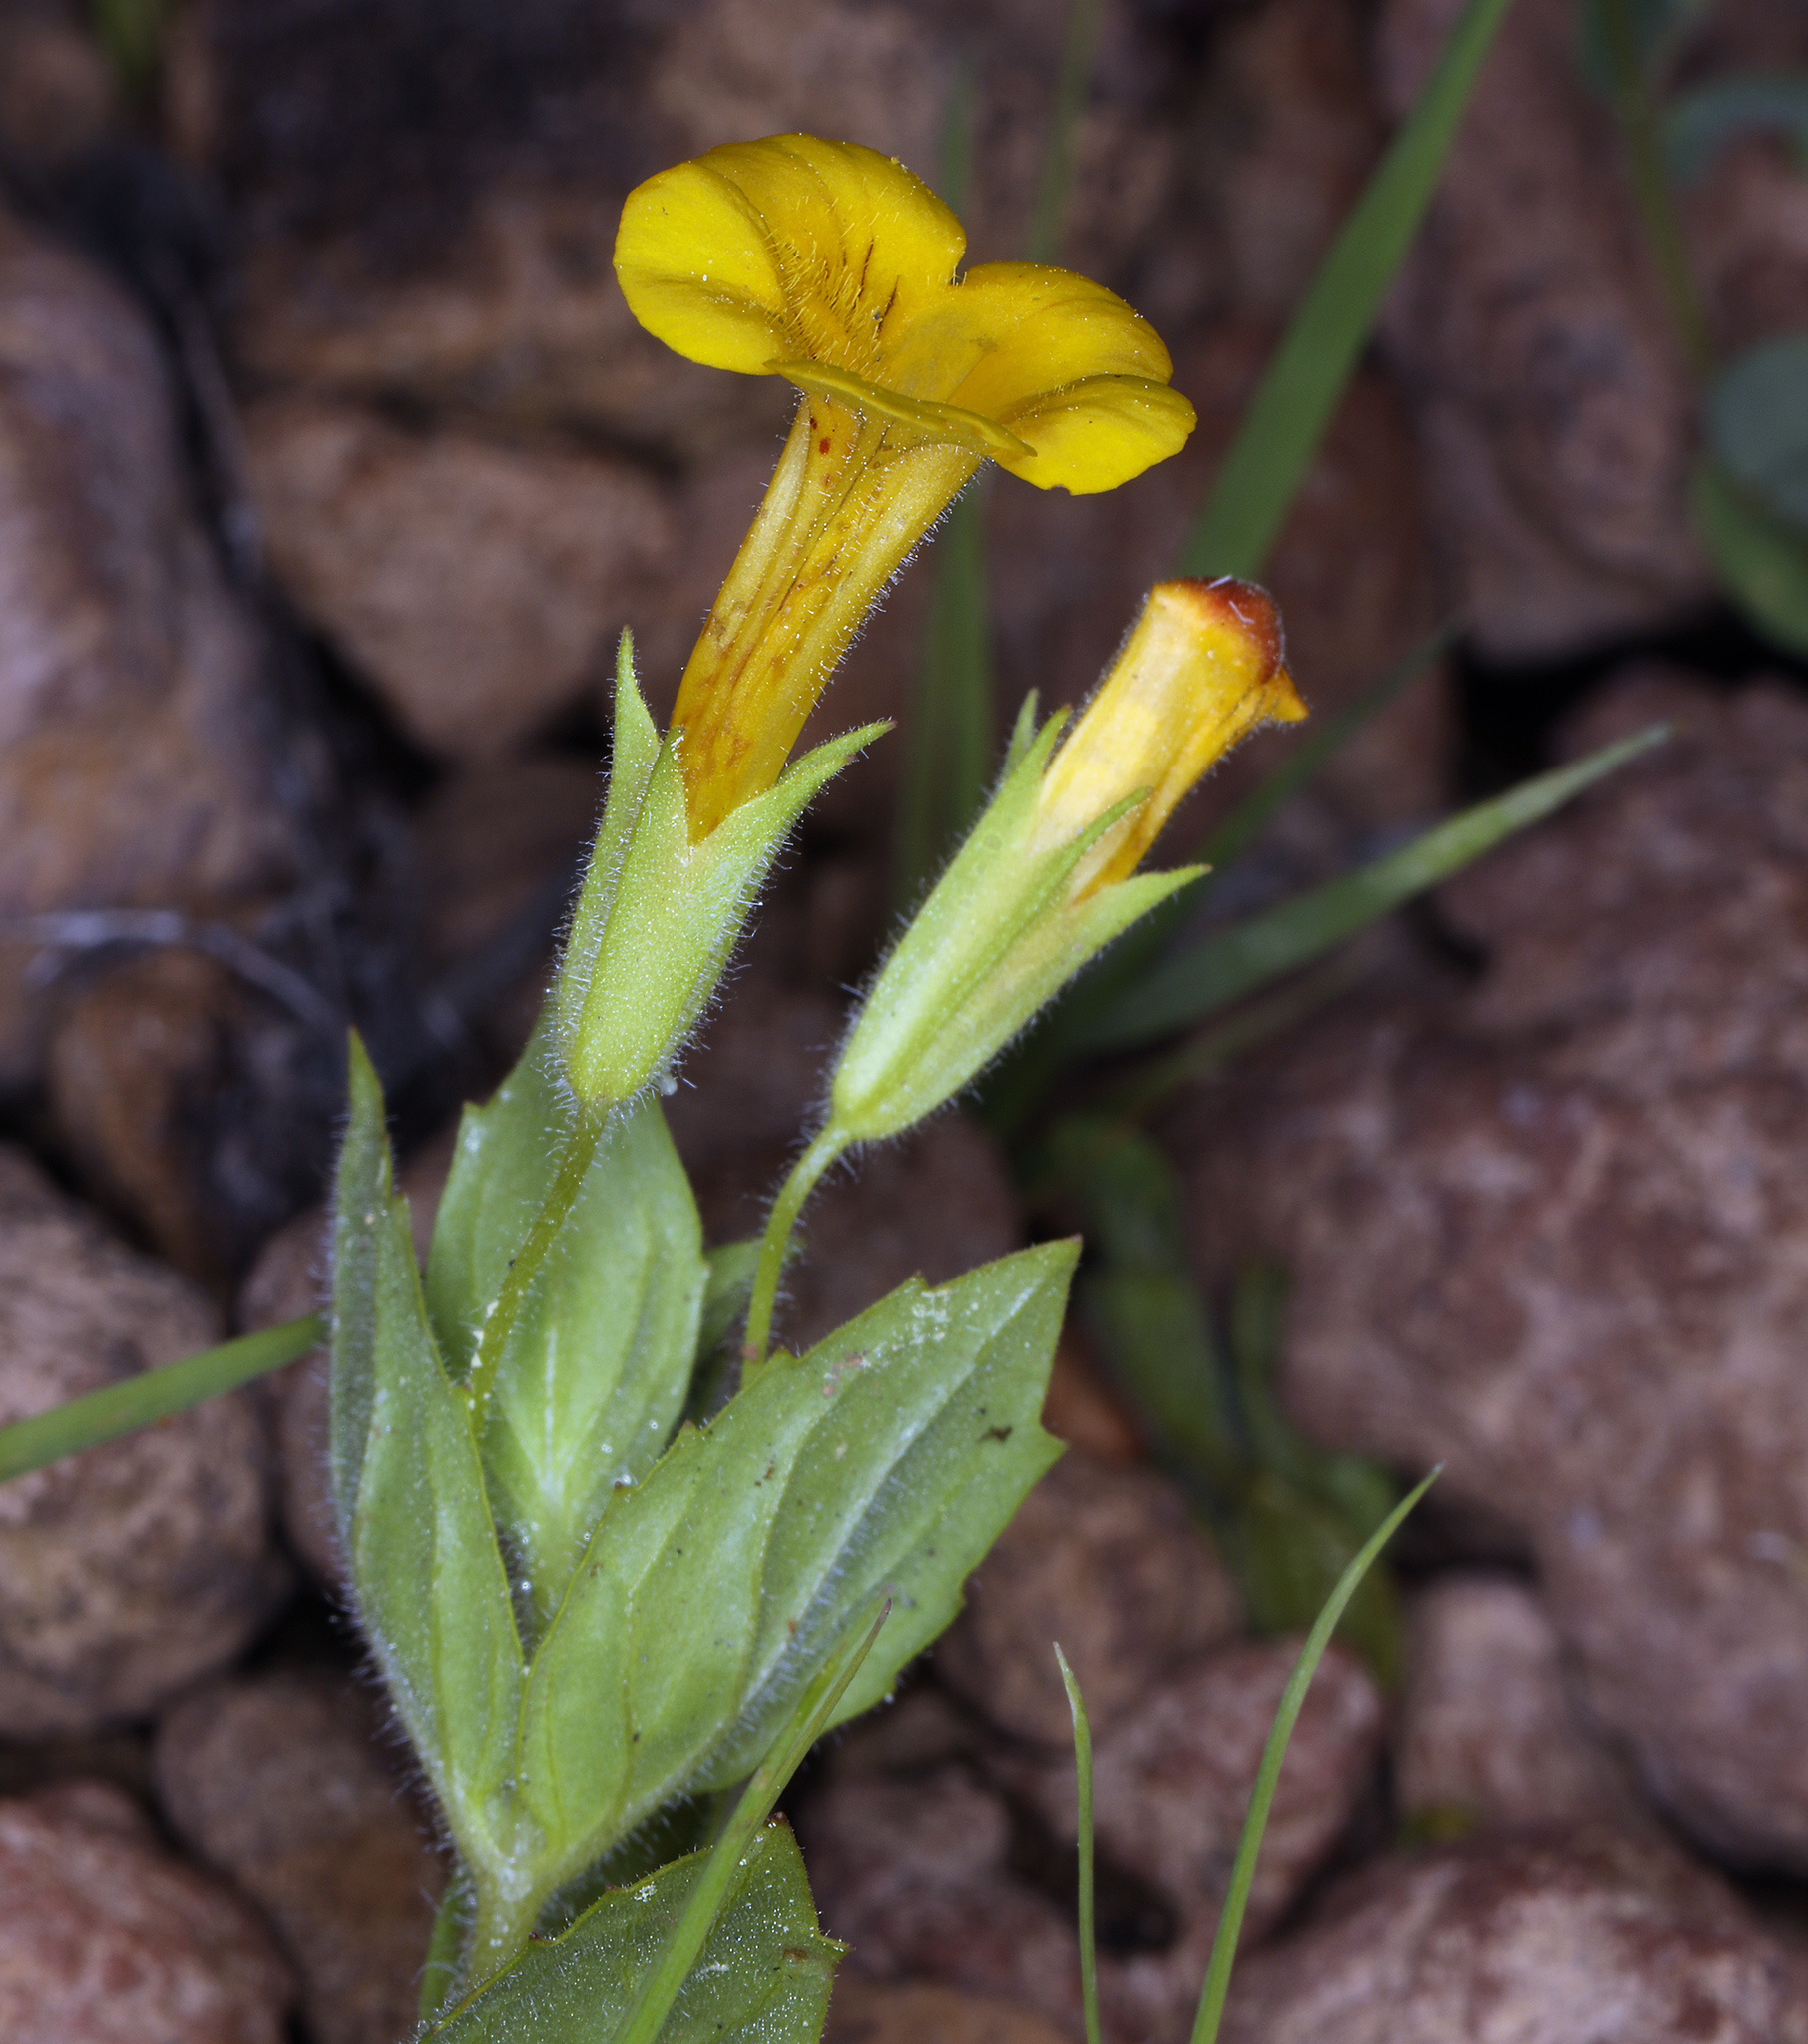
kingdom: Plantae
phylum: Tracheophyta
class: Magnoliopsida
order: Lamiales
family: Phrymaceae
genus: Erythranthe
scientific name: Erythranthe moschata
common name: Muskflower
